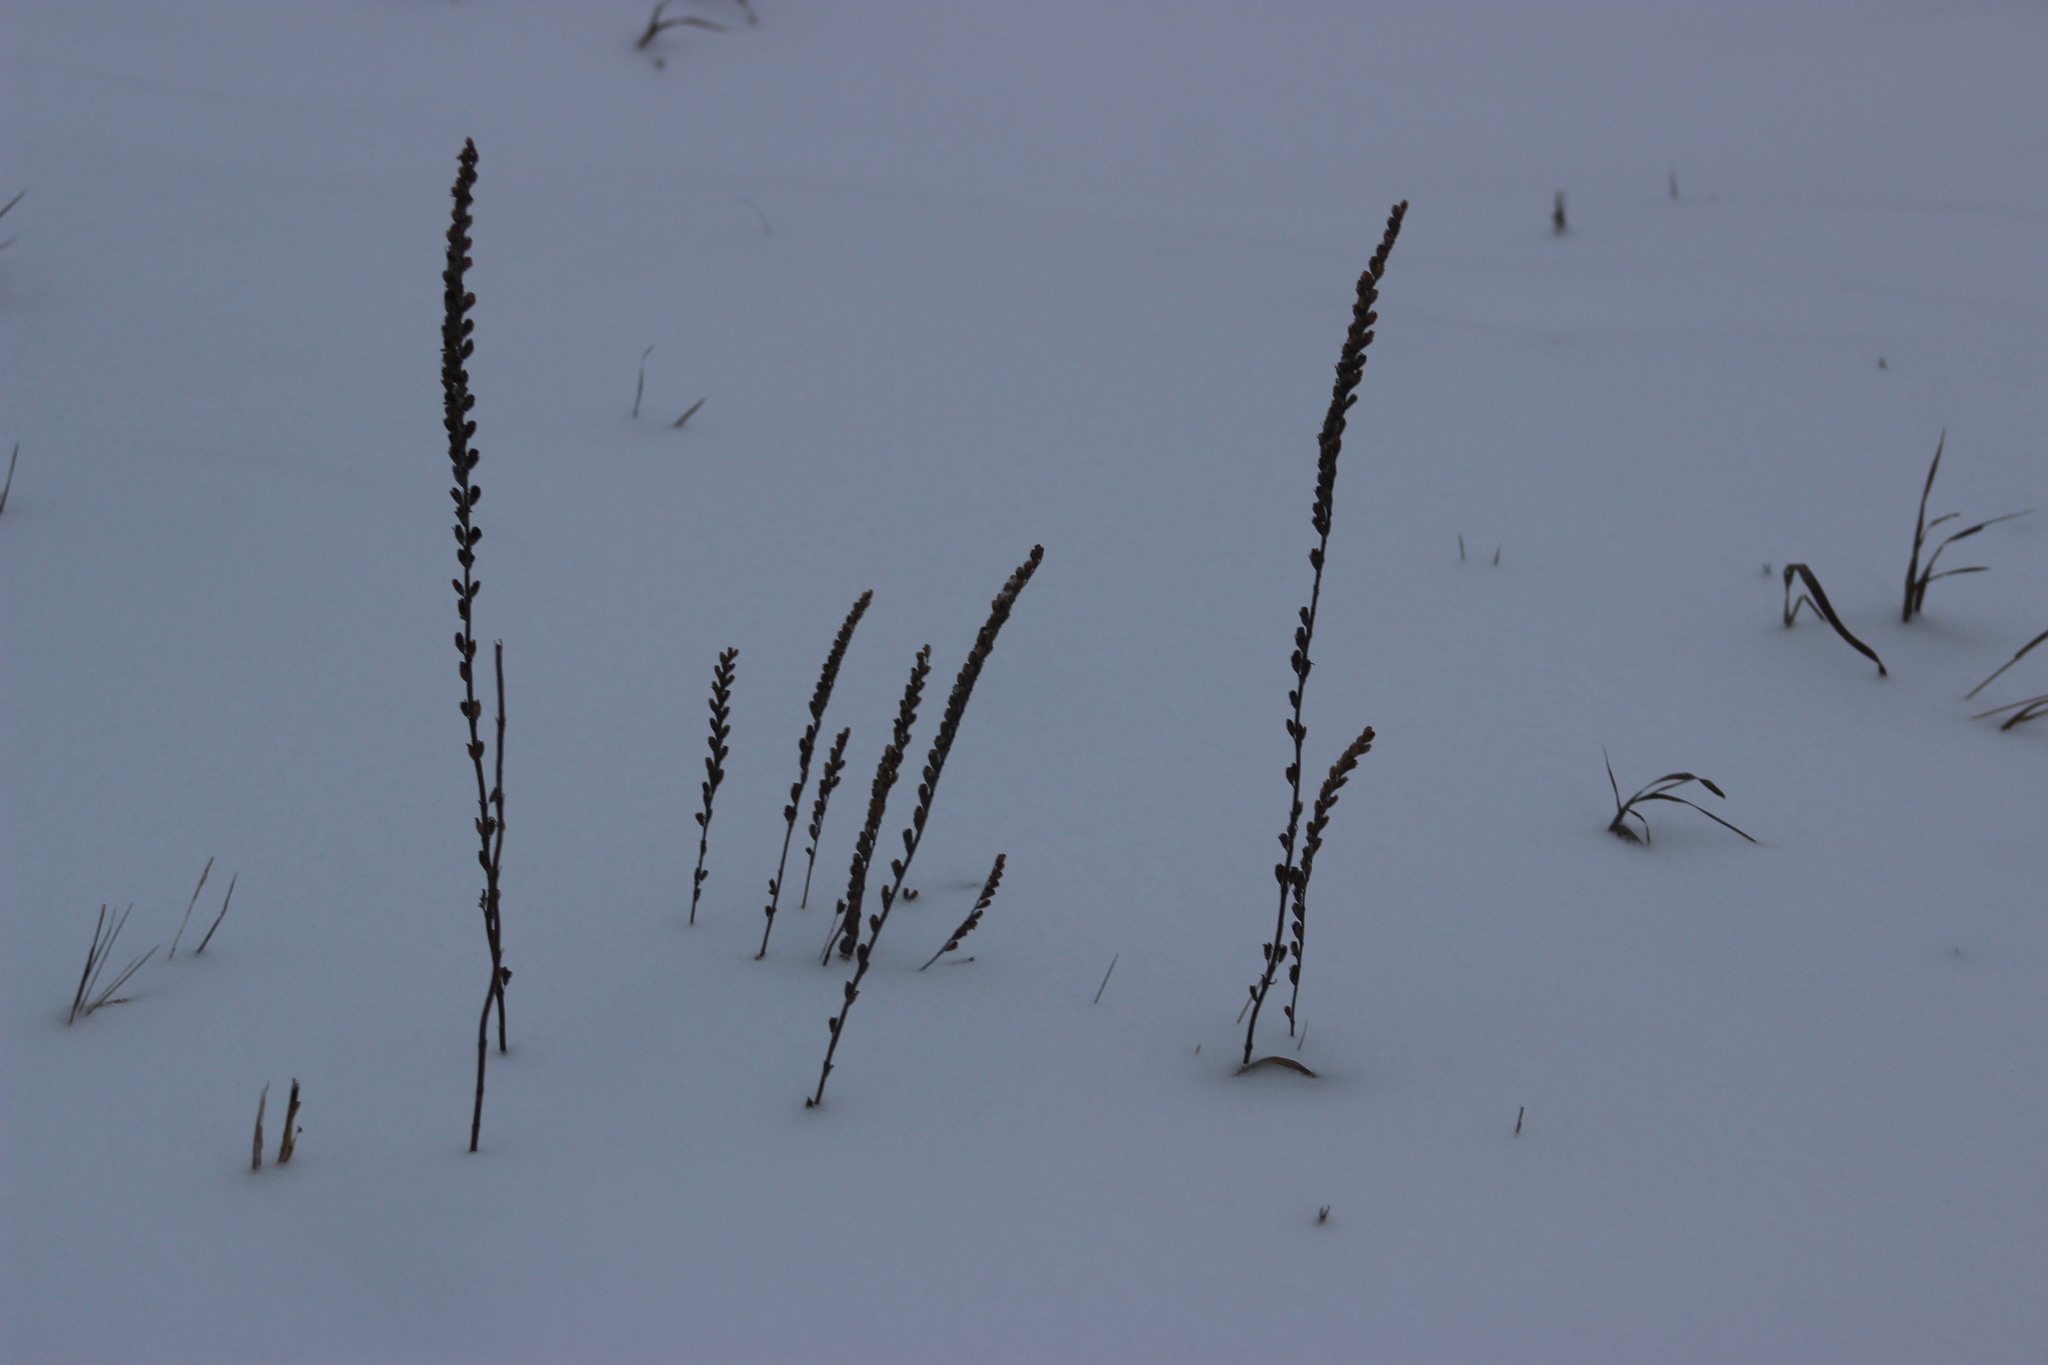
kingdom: Plantae
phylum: Tracheophyta
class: Magnoliopsida
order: Lamiales
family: Orobanchaceae
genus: Odontites
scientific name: Odontites vulgaris
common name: Broomrape
